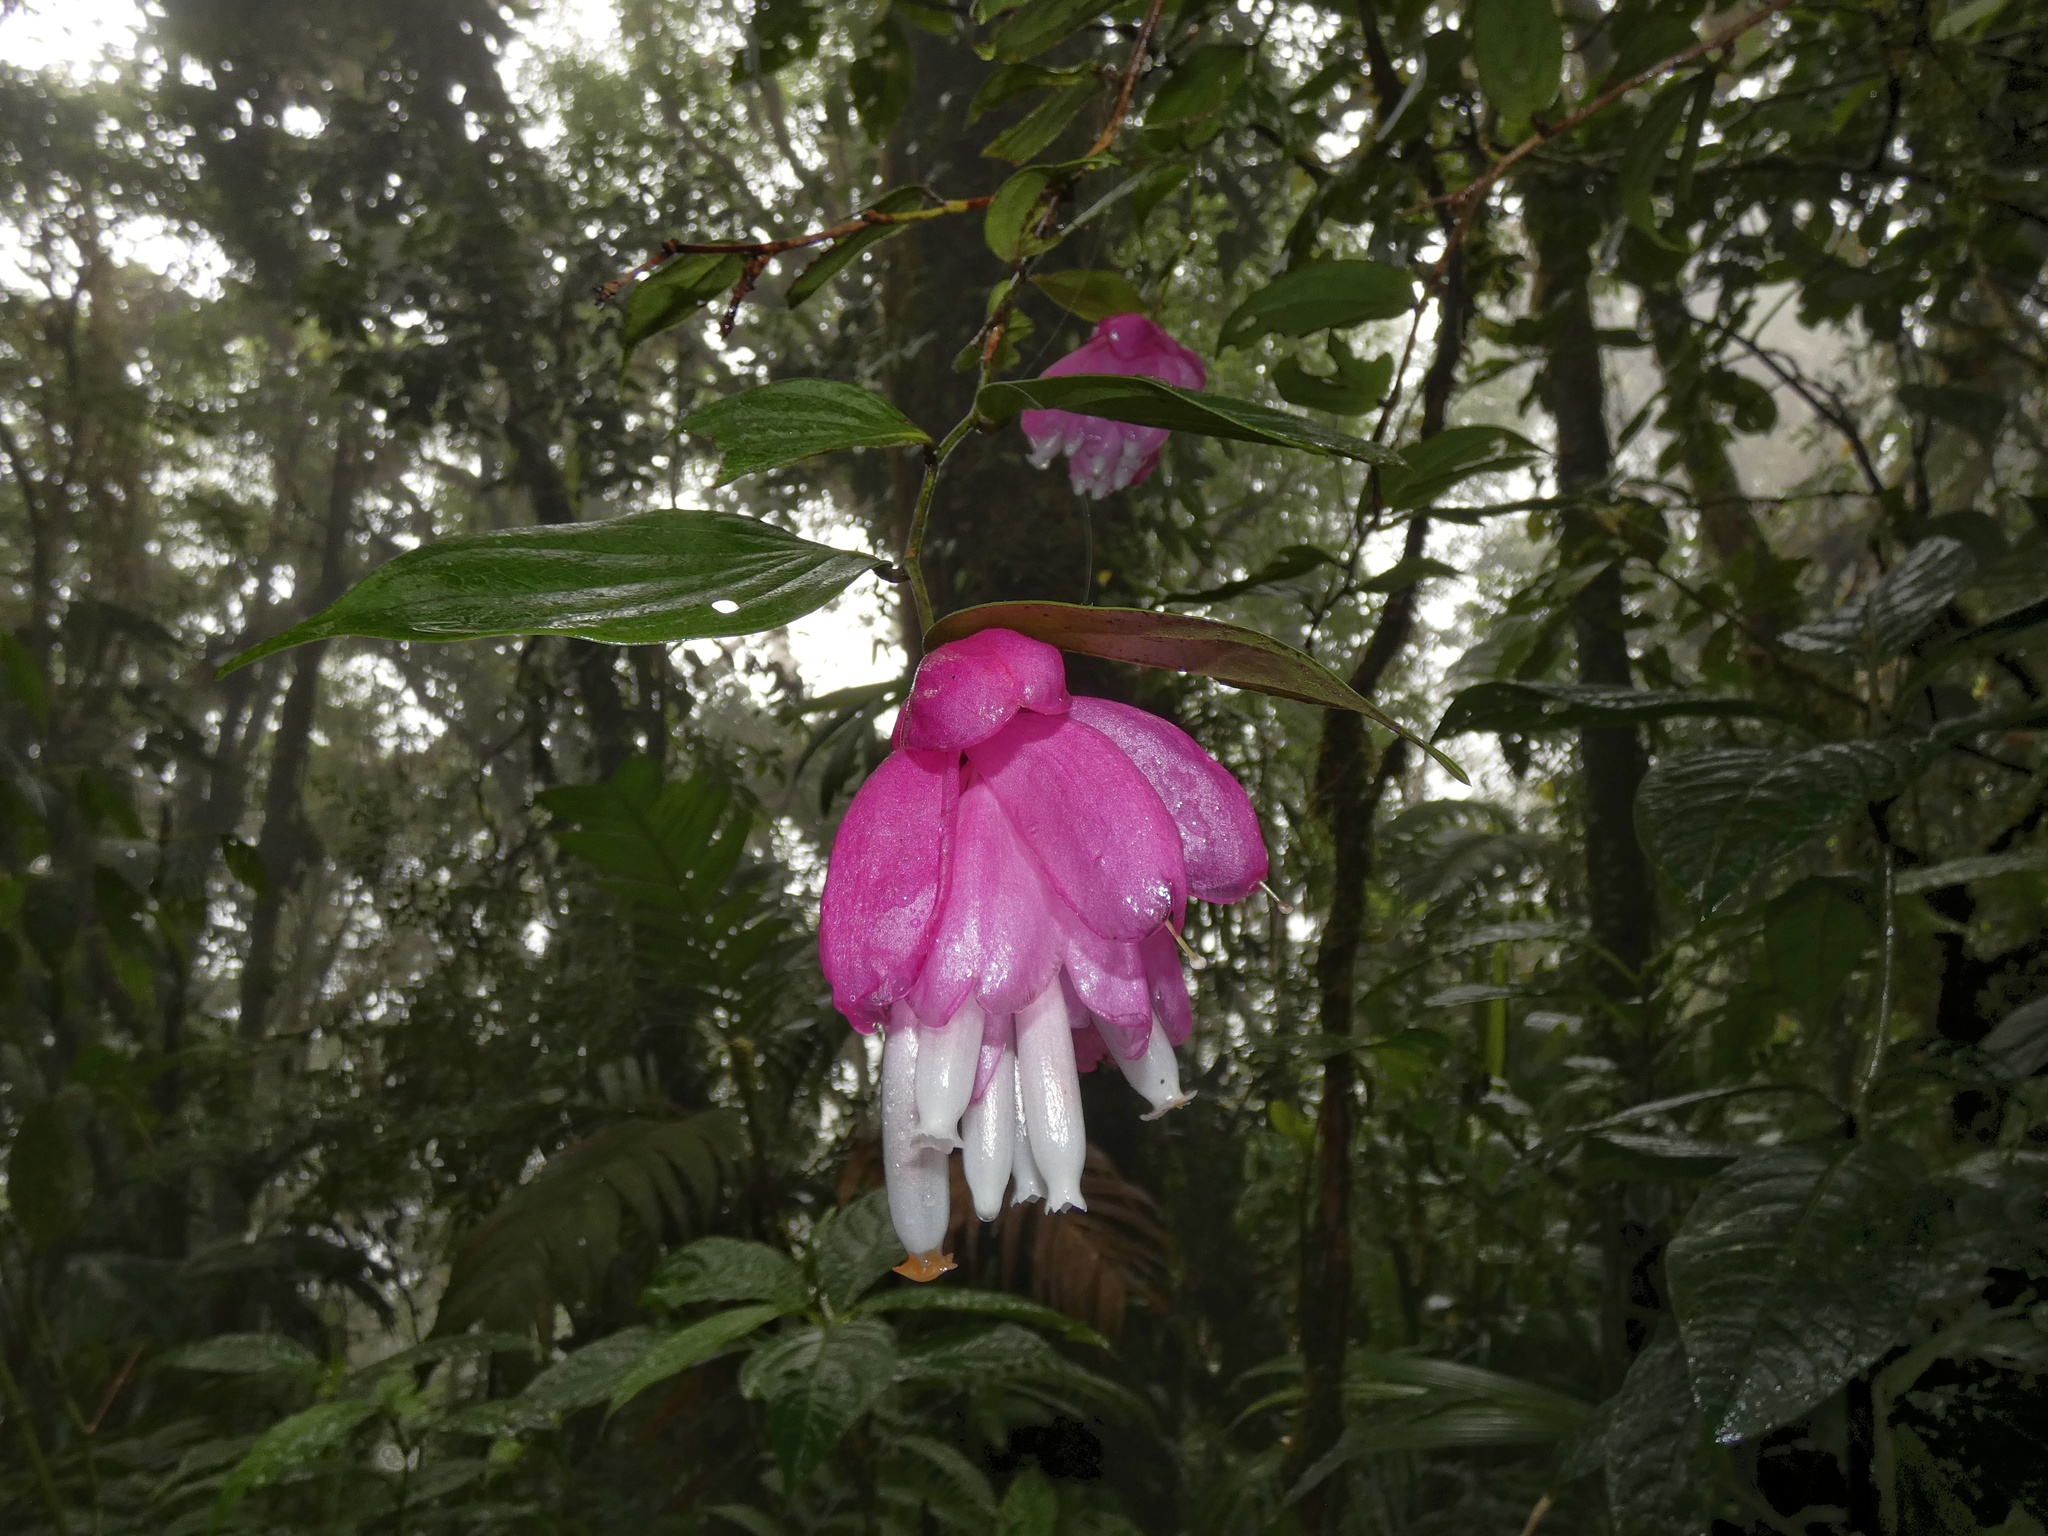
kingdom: Plantae
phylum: Tracheophyta
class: Magnoliopsida
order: Ericales
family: Ericaceae
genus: Cavendishia
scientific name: Cavendishia bracteata
